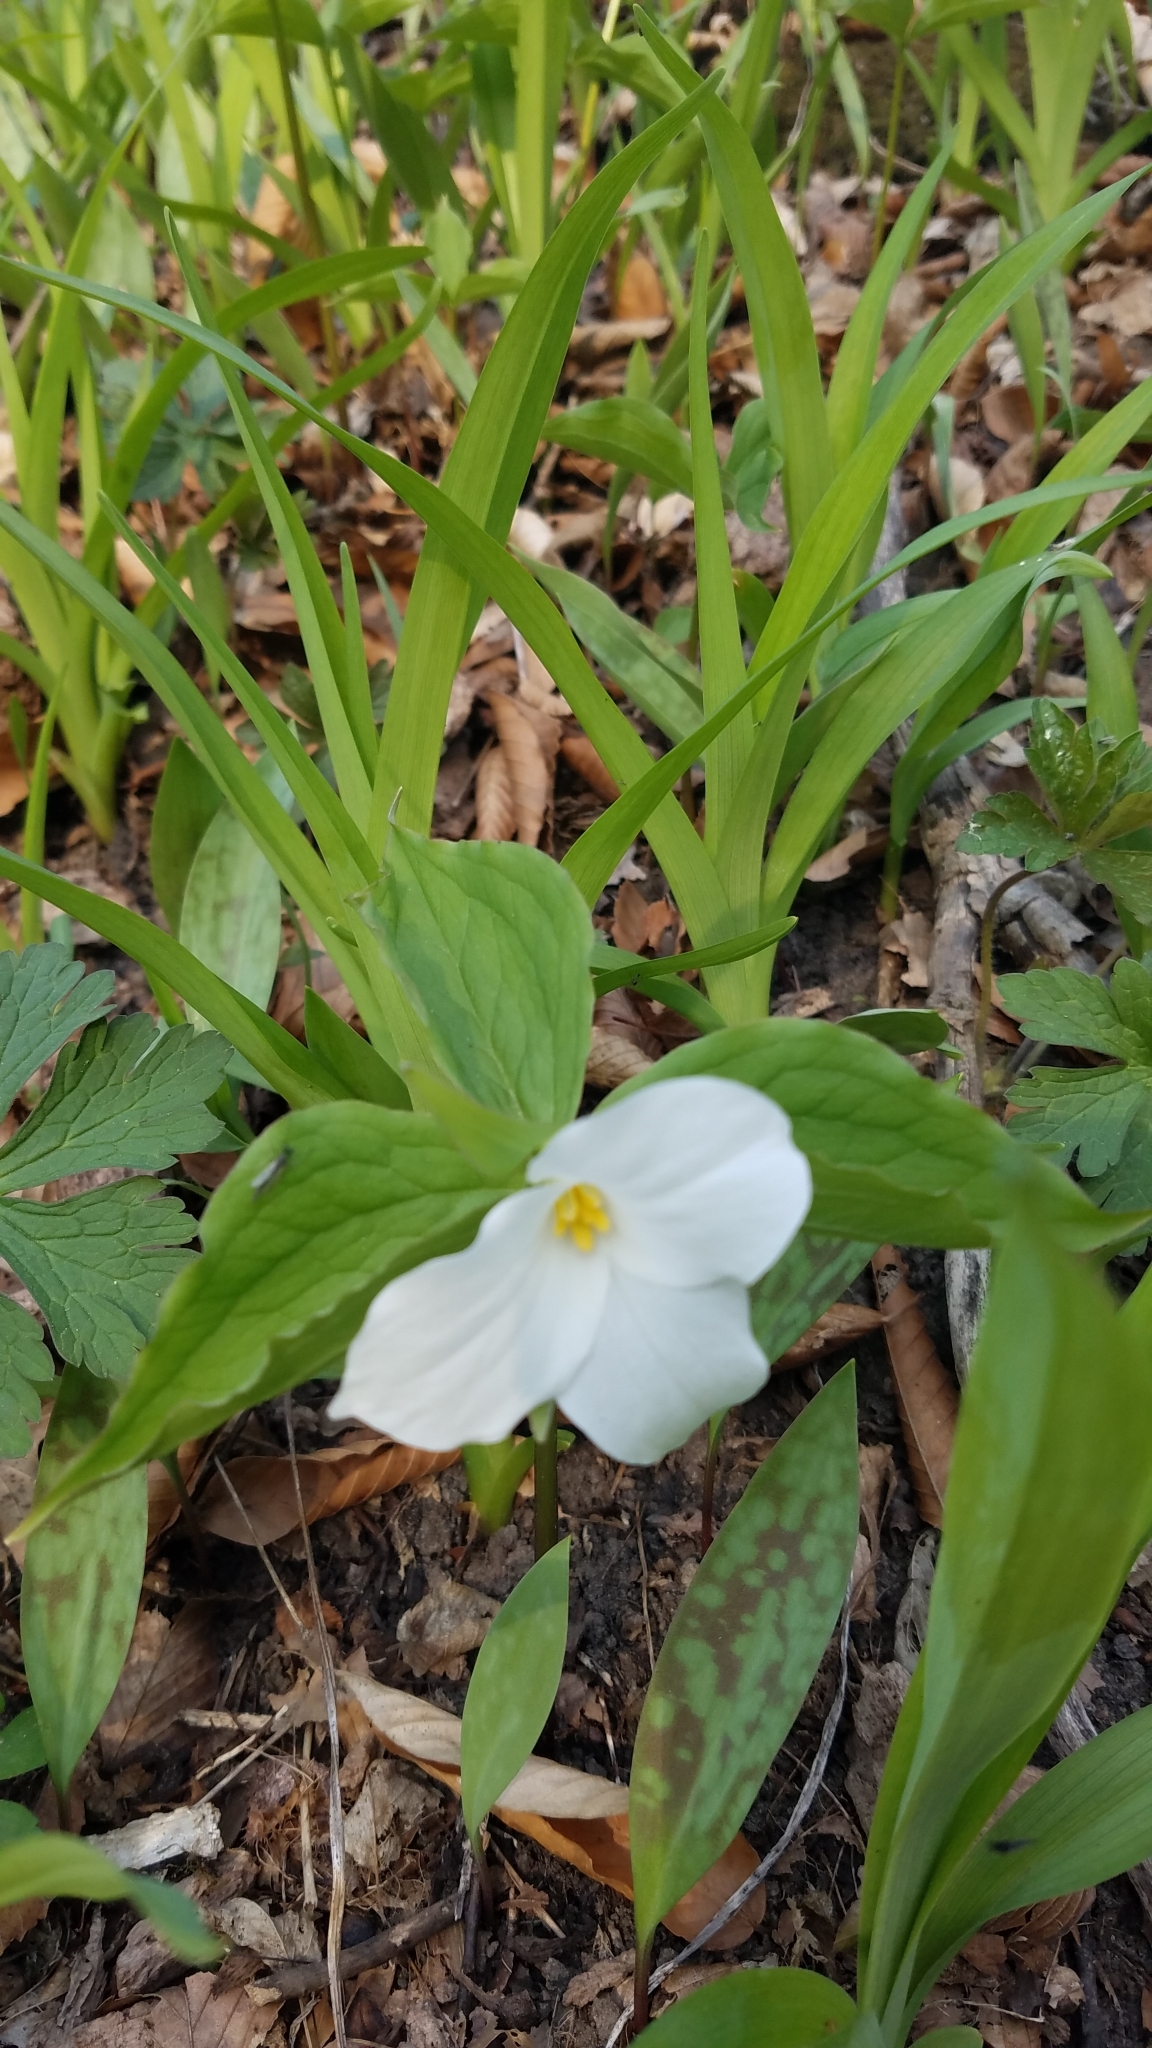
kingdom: Plantae
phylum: Tracheophyta
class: Liliopsida
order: Liliales
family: Melanthiaceae
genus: Trillium
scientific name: Trillium grandiflorum
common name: Great white trillium
